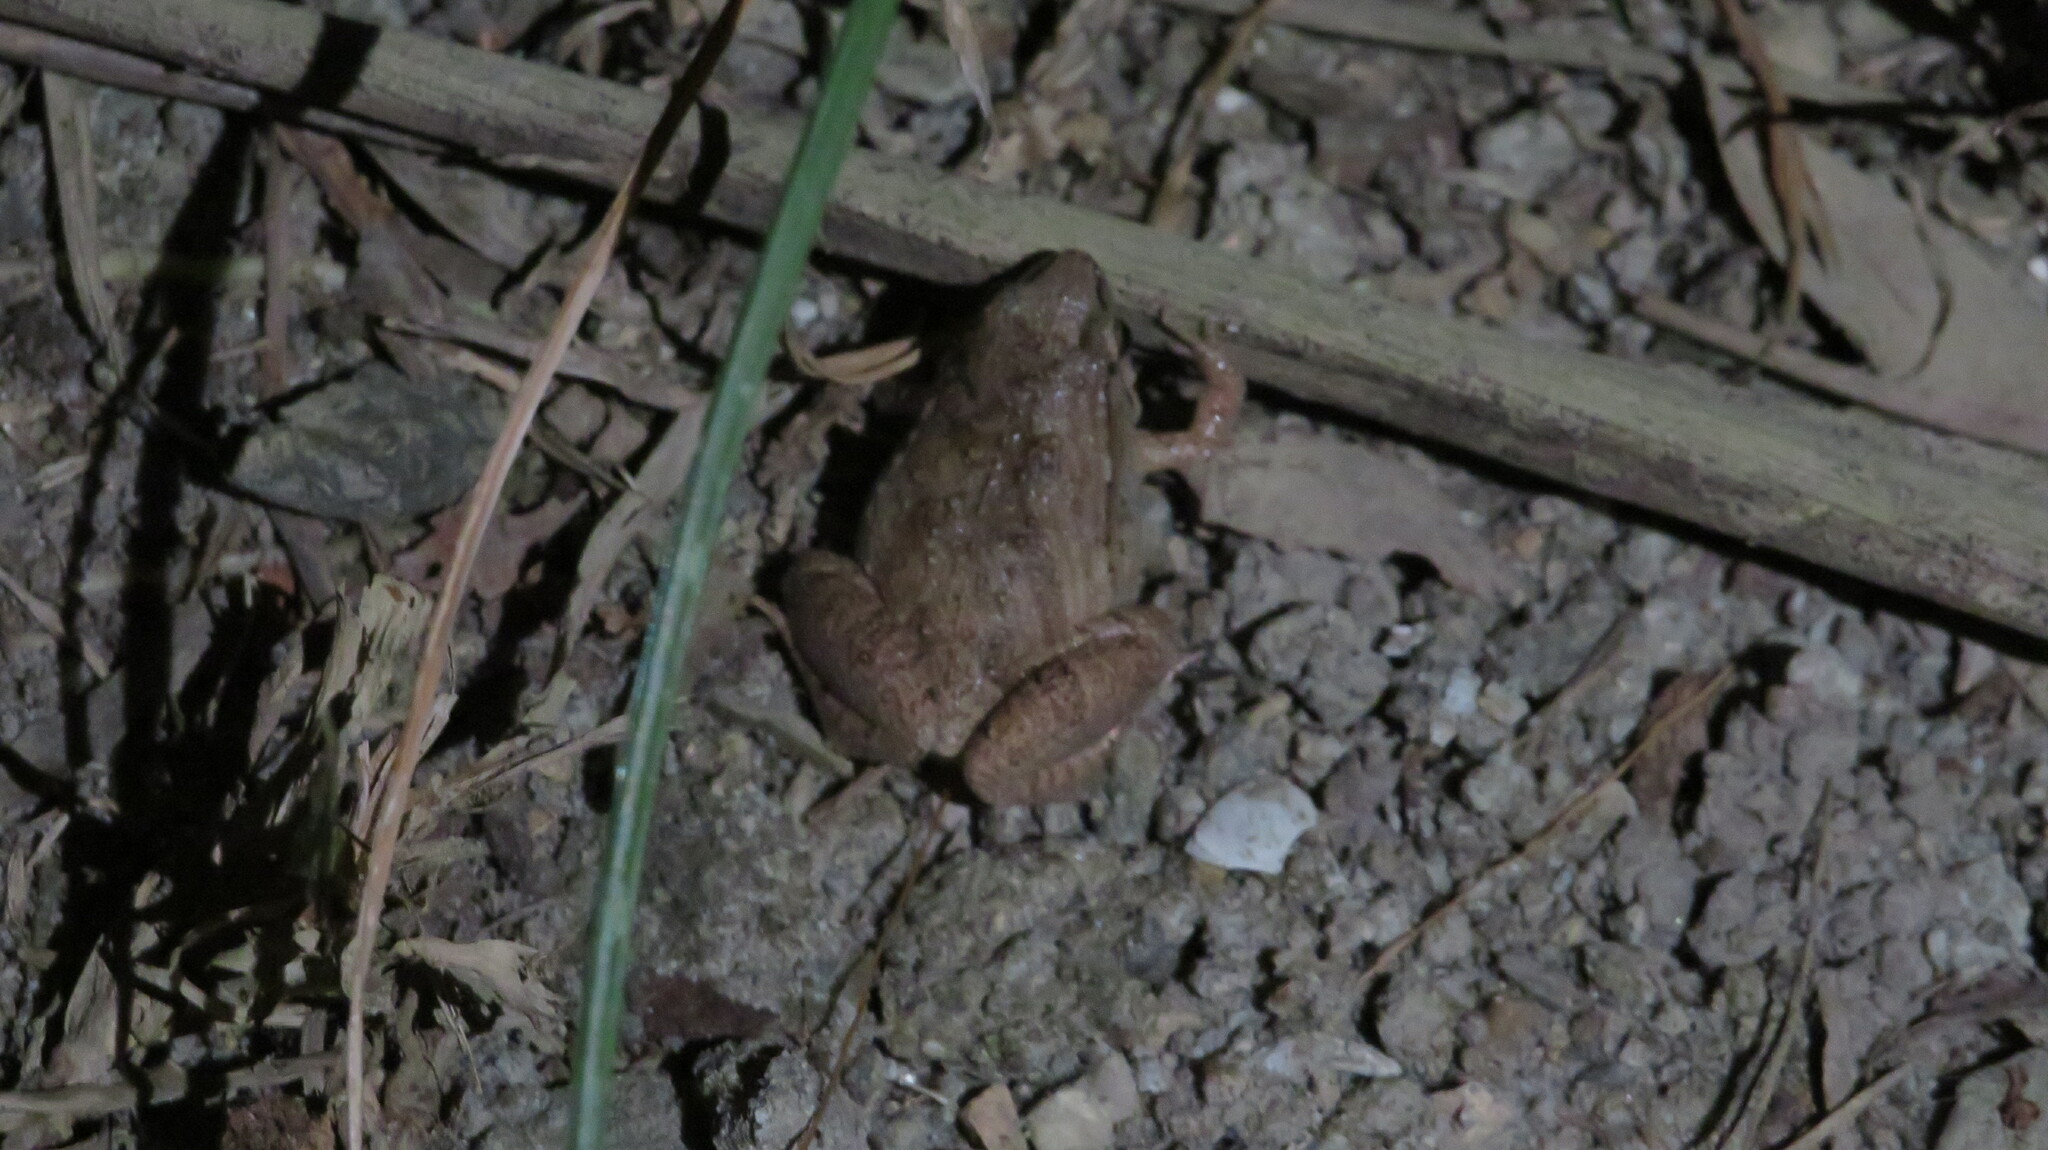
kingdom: Animalia
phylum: Chordata
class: Amphibia
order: Anura
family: Microhylidae
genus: Microhyla
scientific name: Microhyla mukhlesuri
